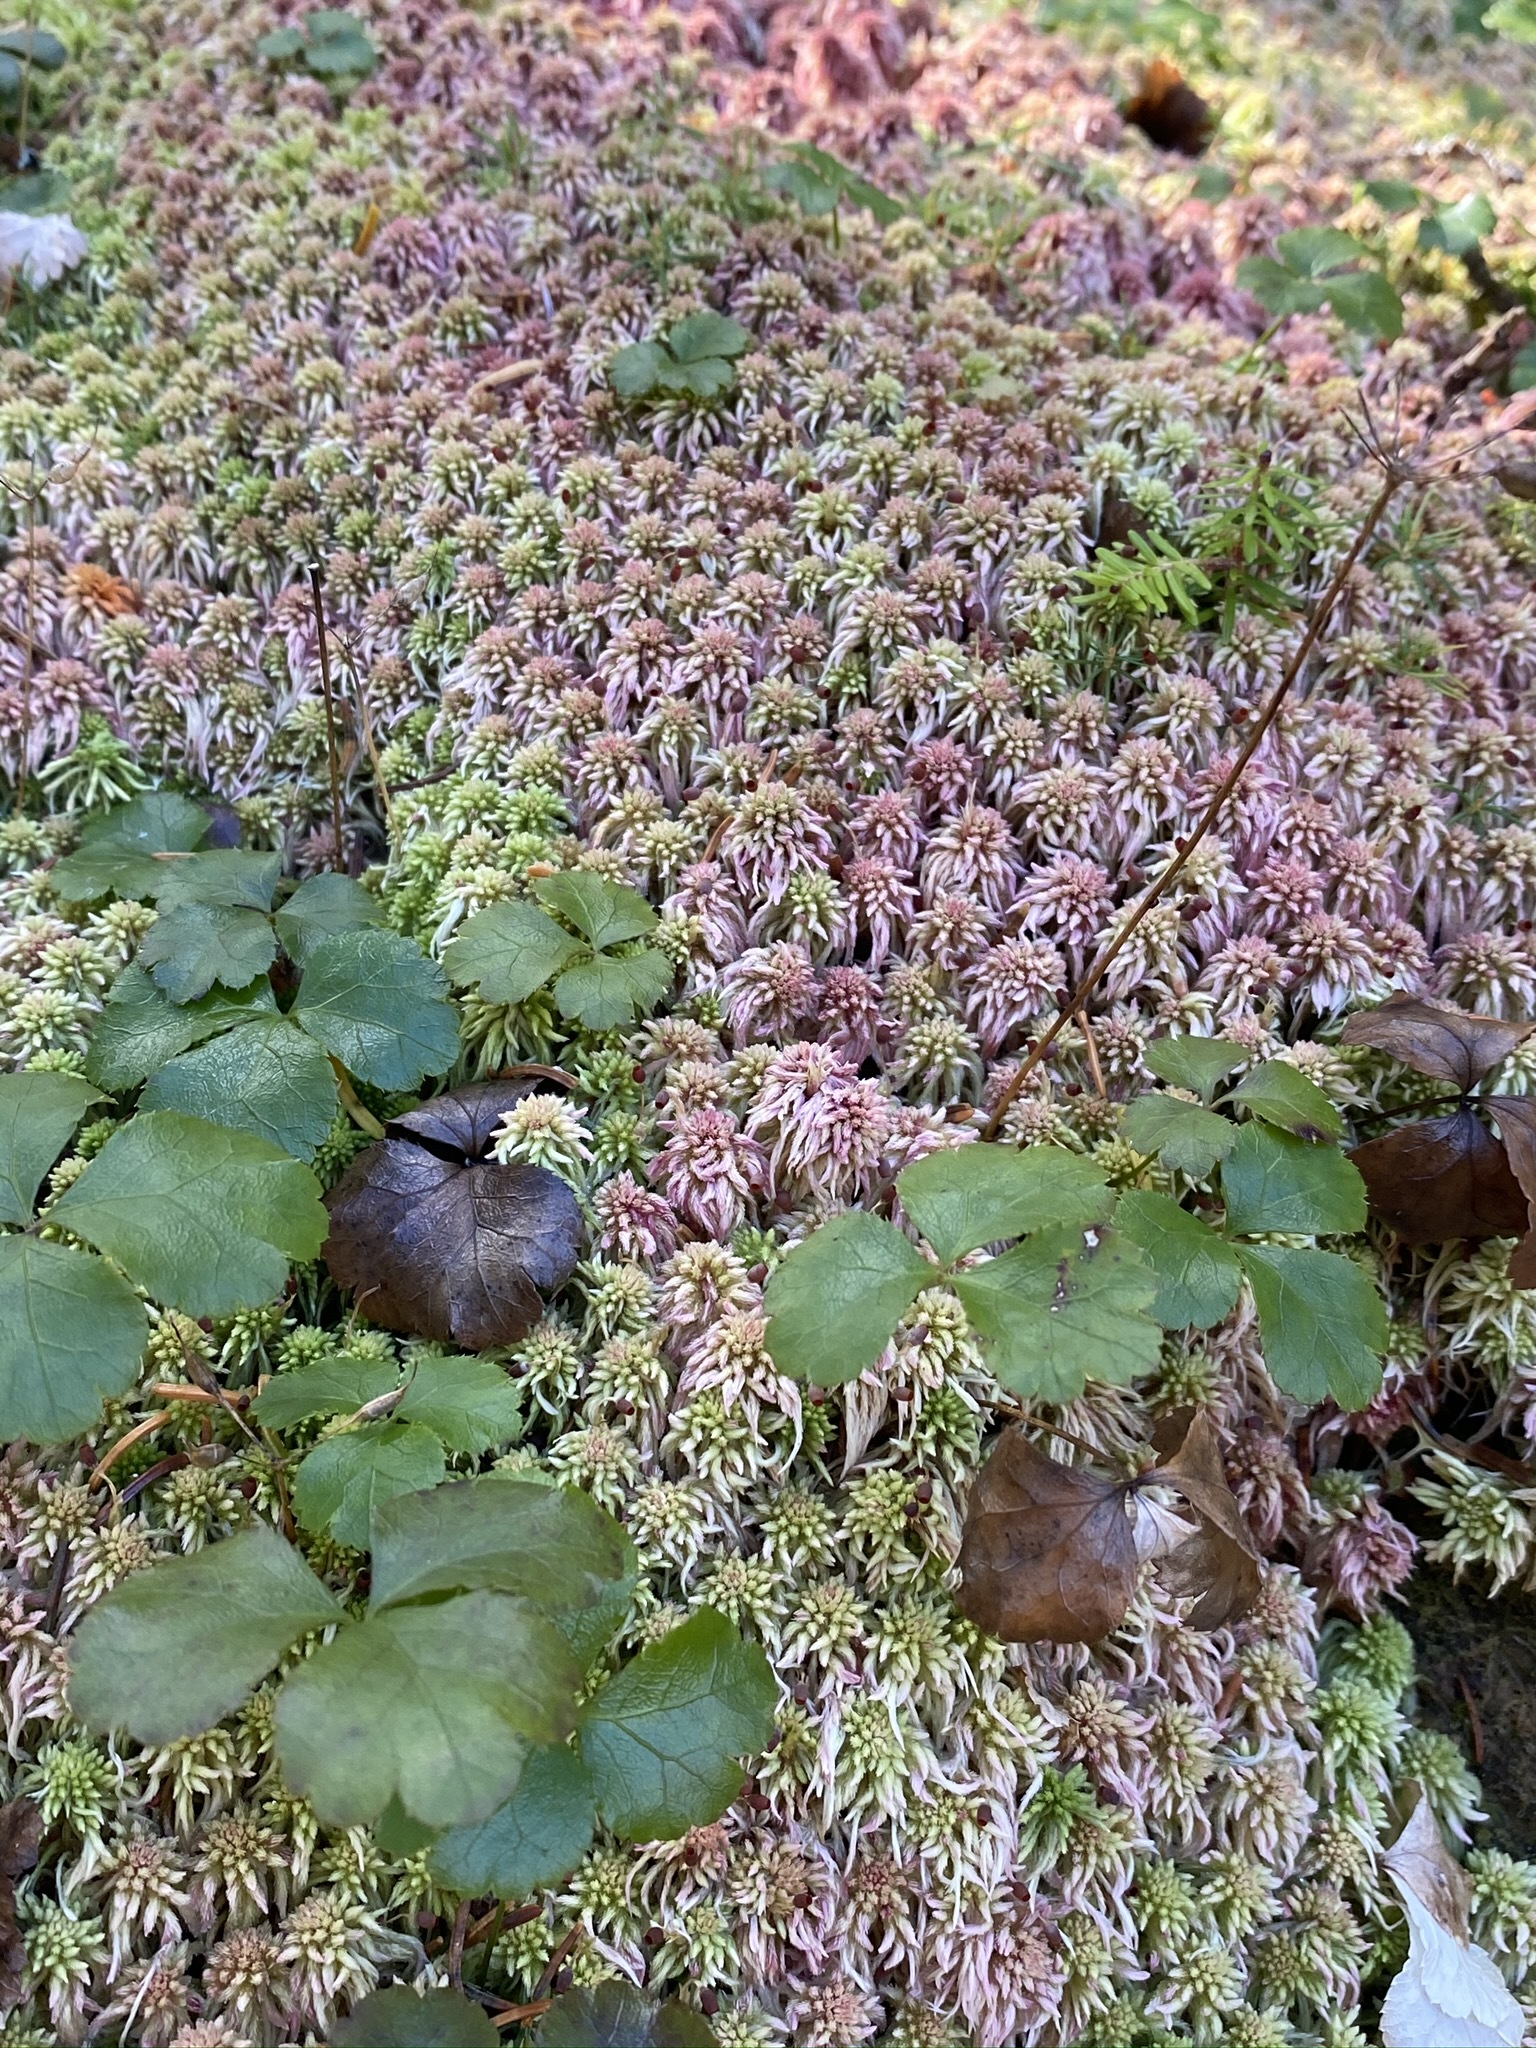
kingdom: Plantae
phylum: Tracheophyta
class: Magnoliopsida
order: Ranunculales
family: Ranunculaceae
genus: Coptis
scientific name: Coptis trifolia
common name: Canker-root
